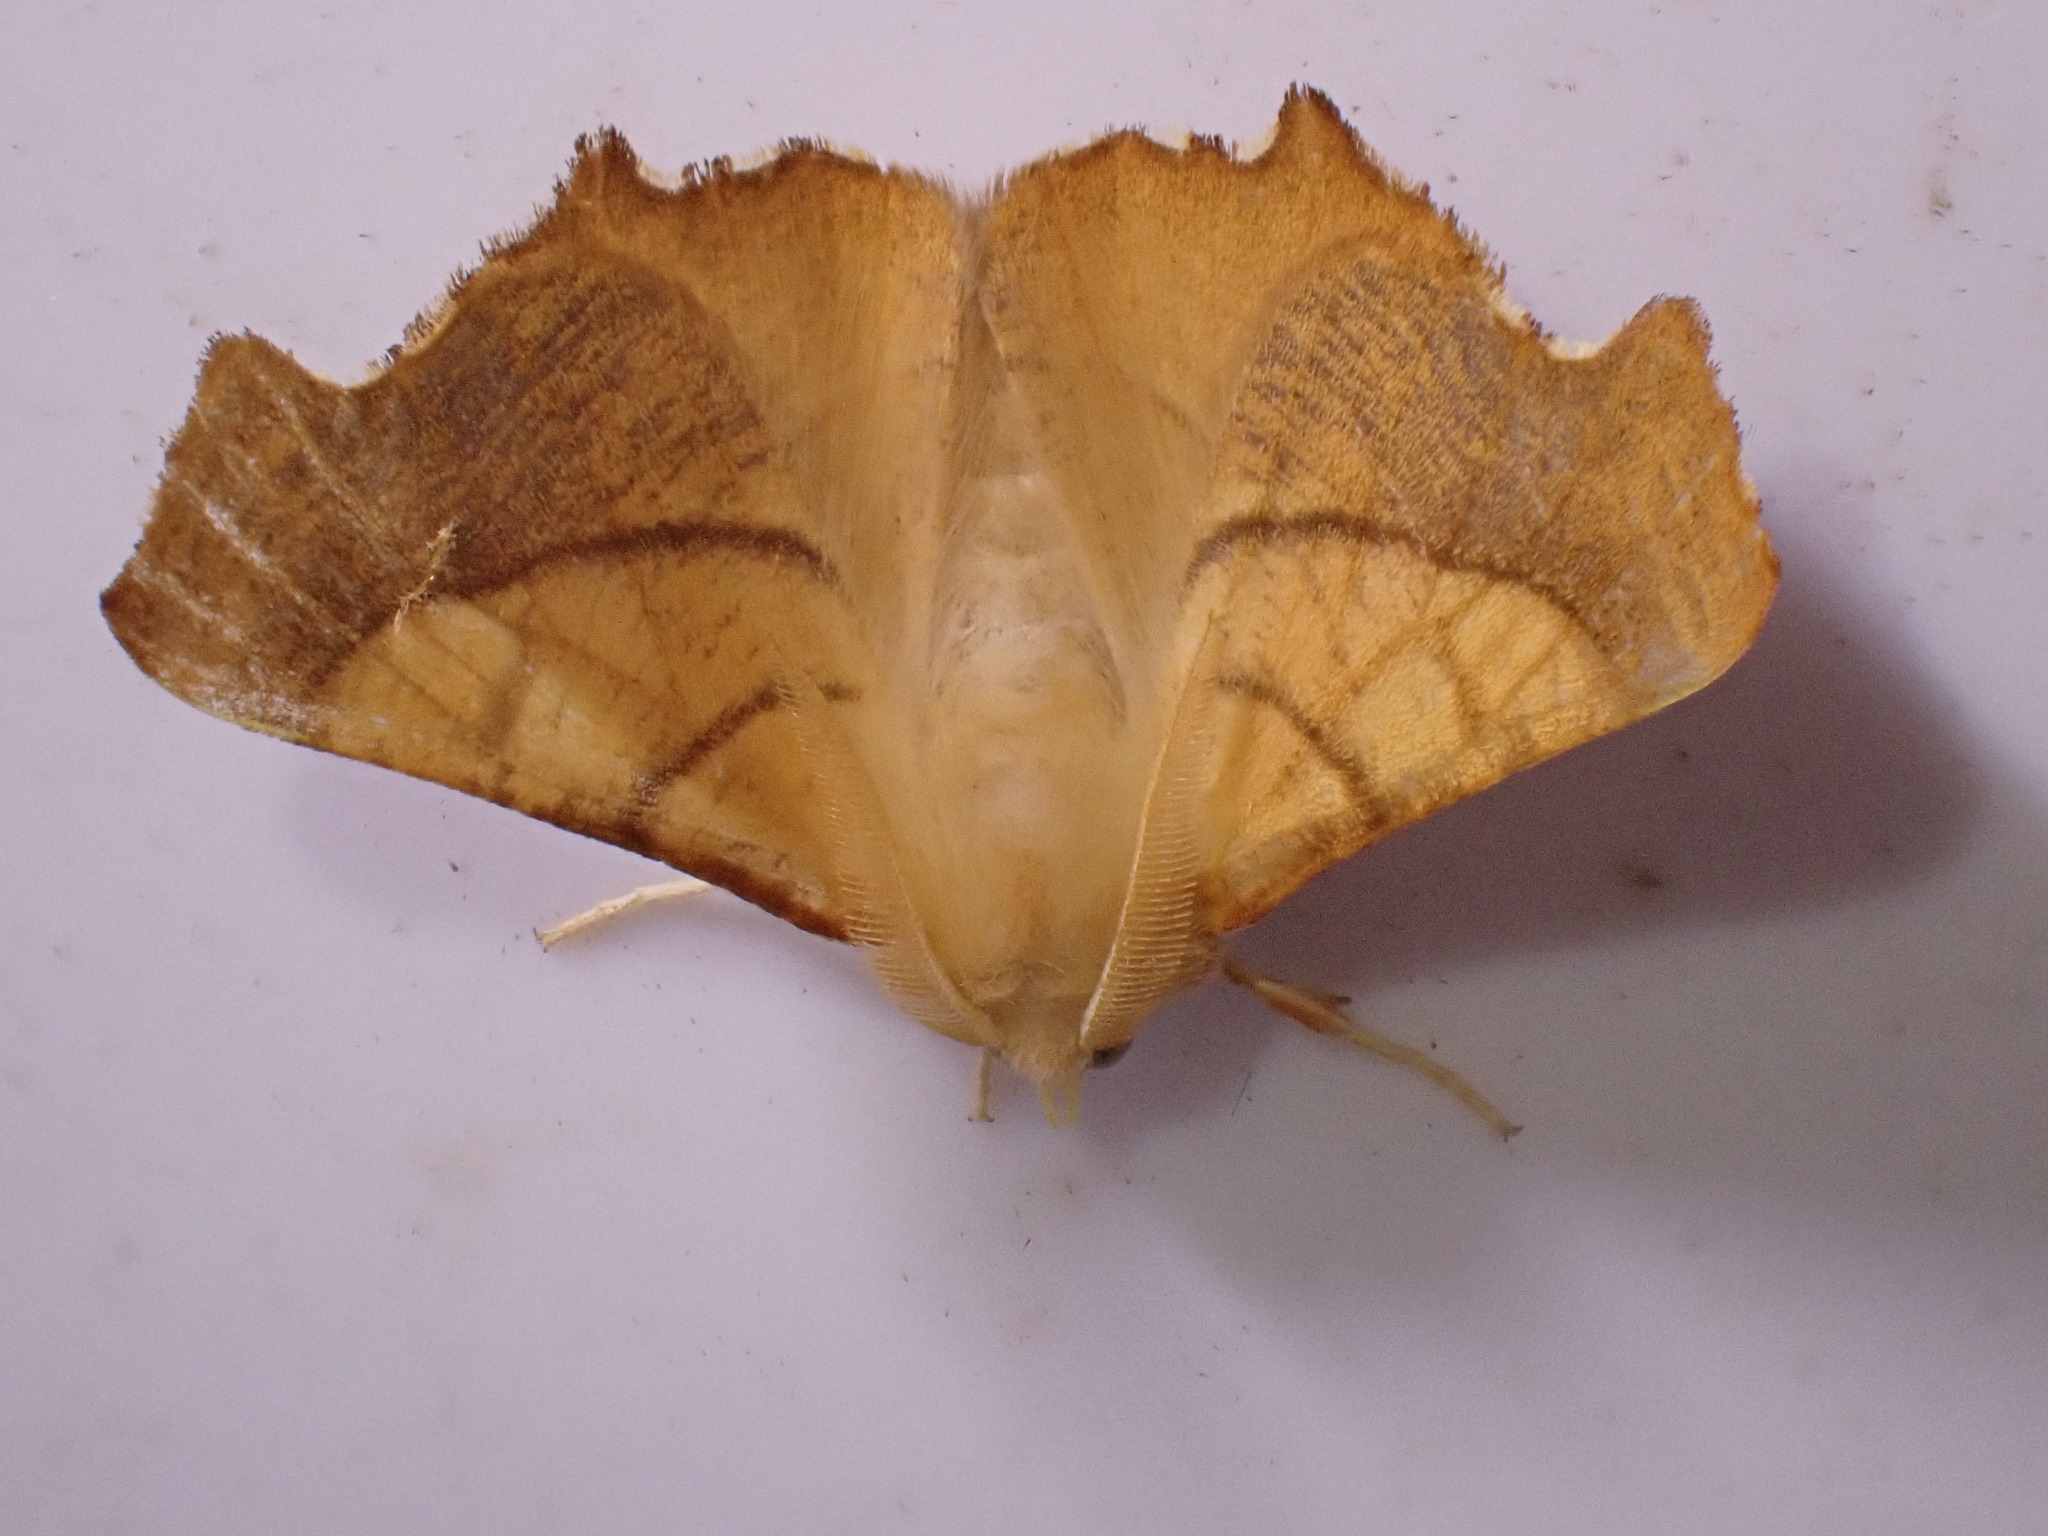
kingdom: Animalia
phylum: Arthropoda
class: Insecta
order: Lepidoptera
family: Geometridae
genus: Ennomos
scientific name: Ennomos fuscantaria
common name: Dusky thorn
